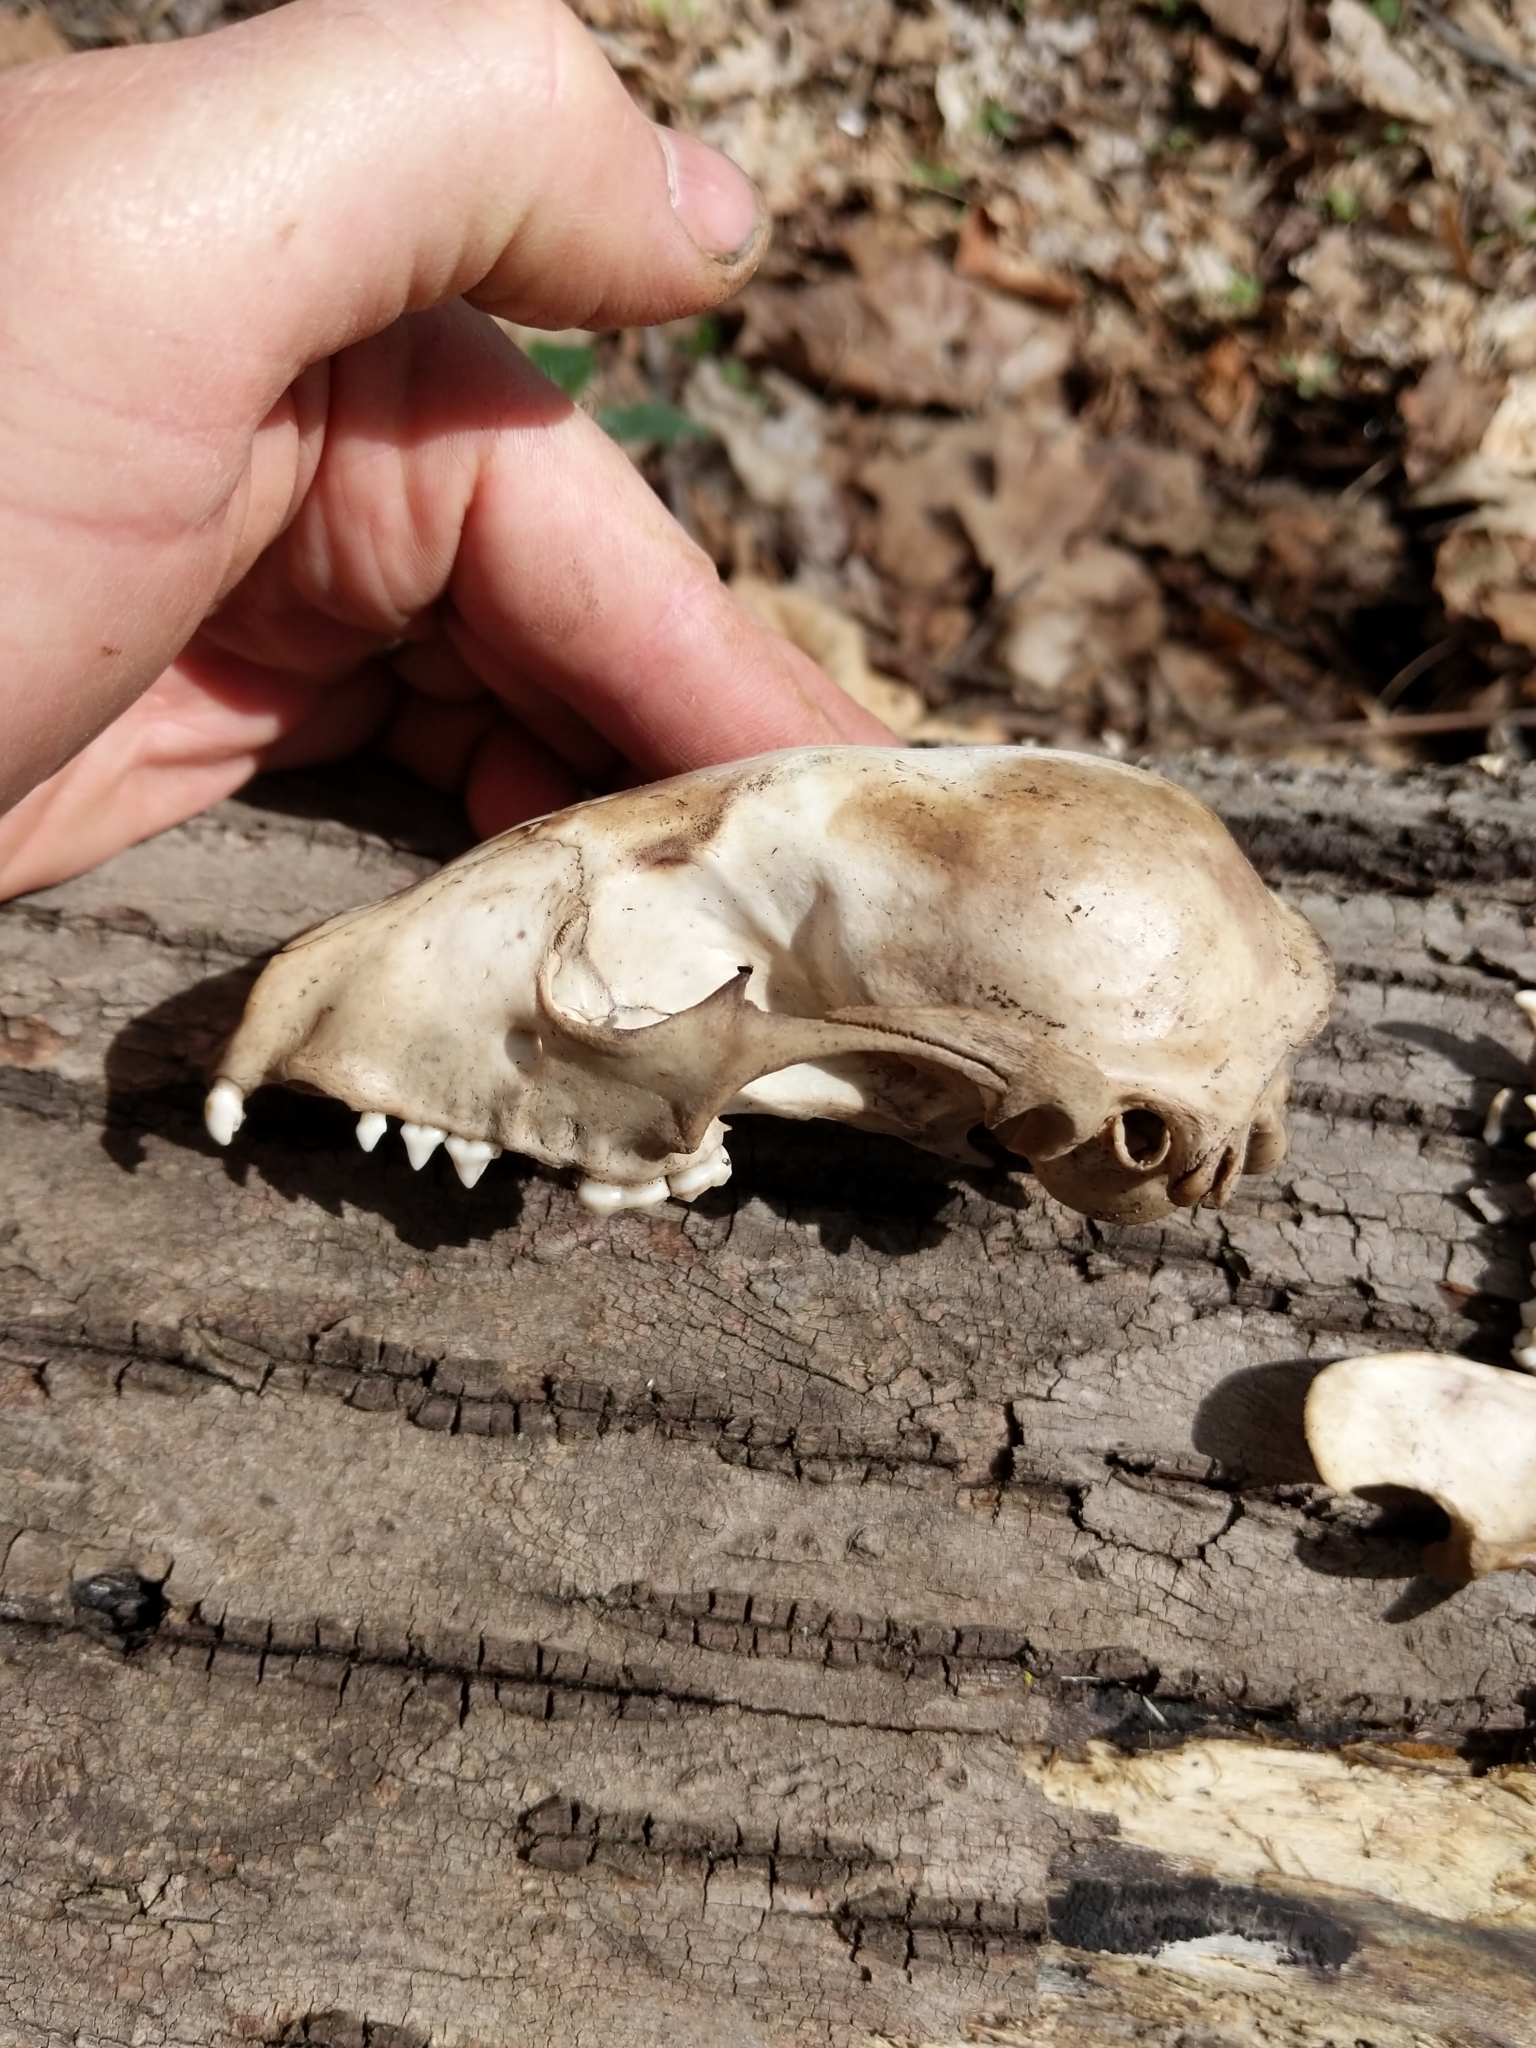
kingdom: Animalia
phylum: Chordata
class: Mammalia
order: Carnivora
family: Procyonidae
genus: Procyon
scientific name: Procyon lotor
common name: Raccoon
